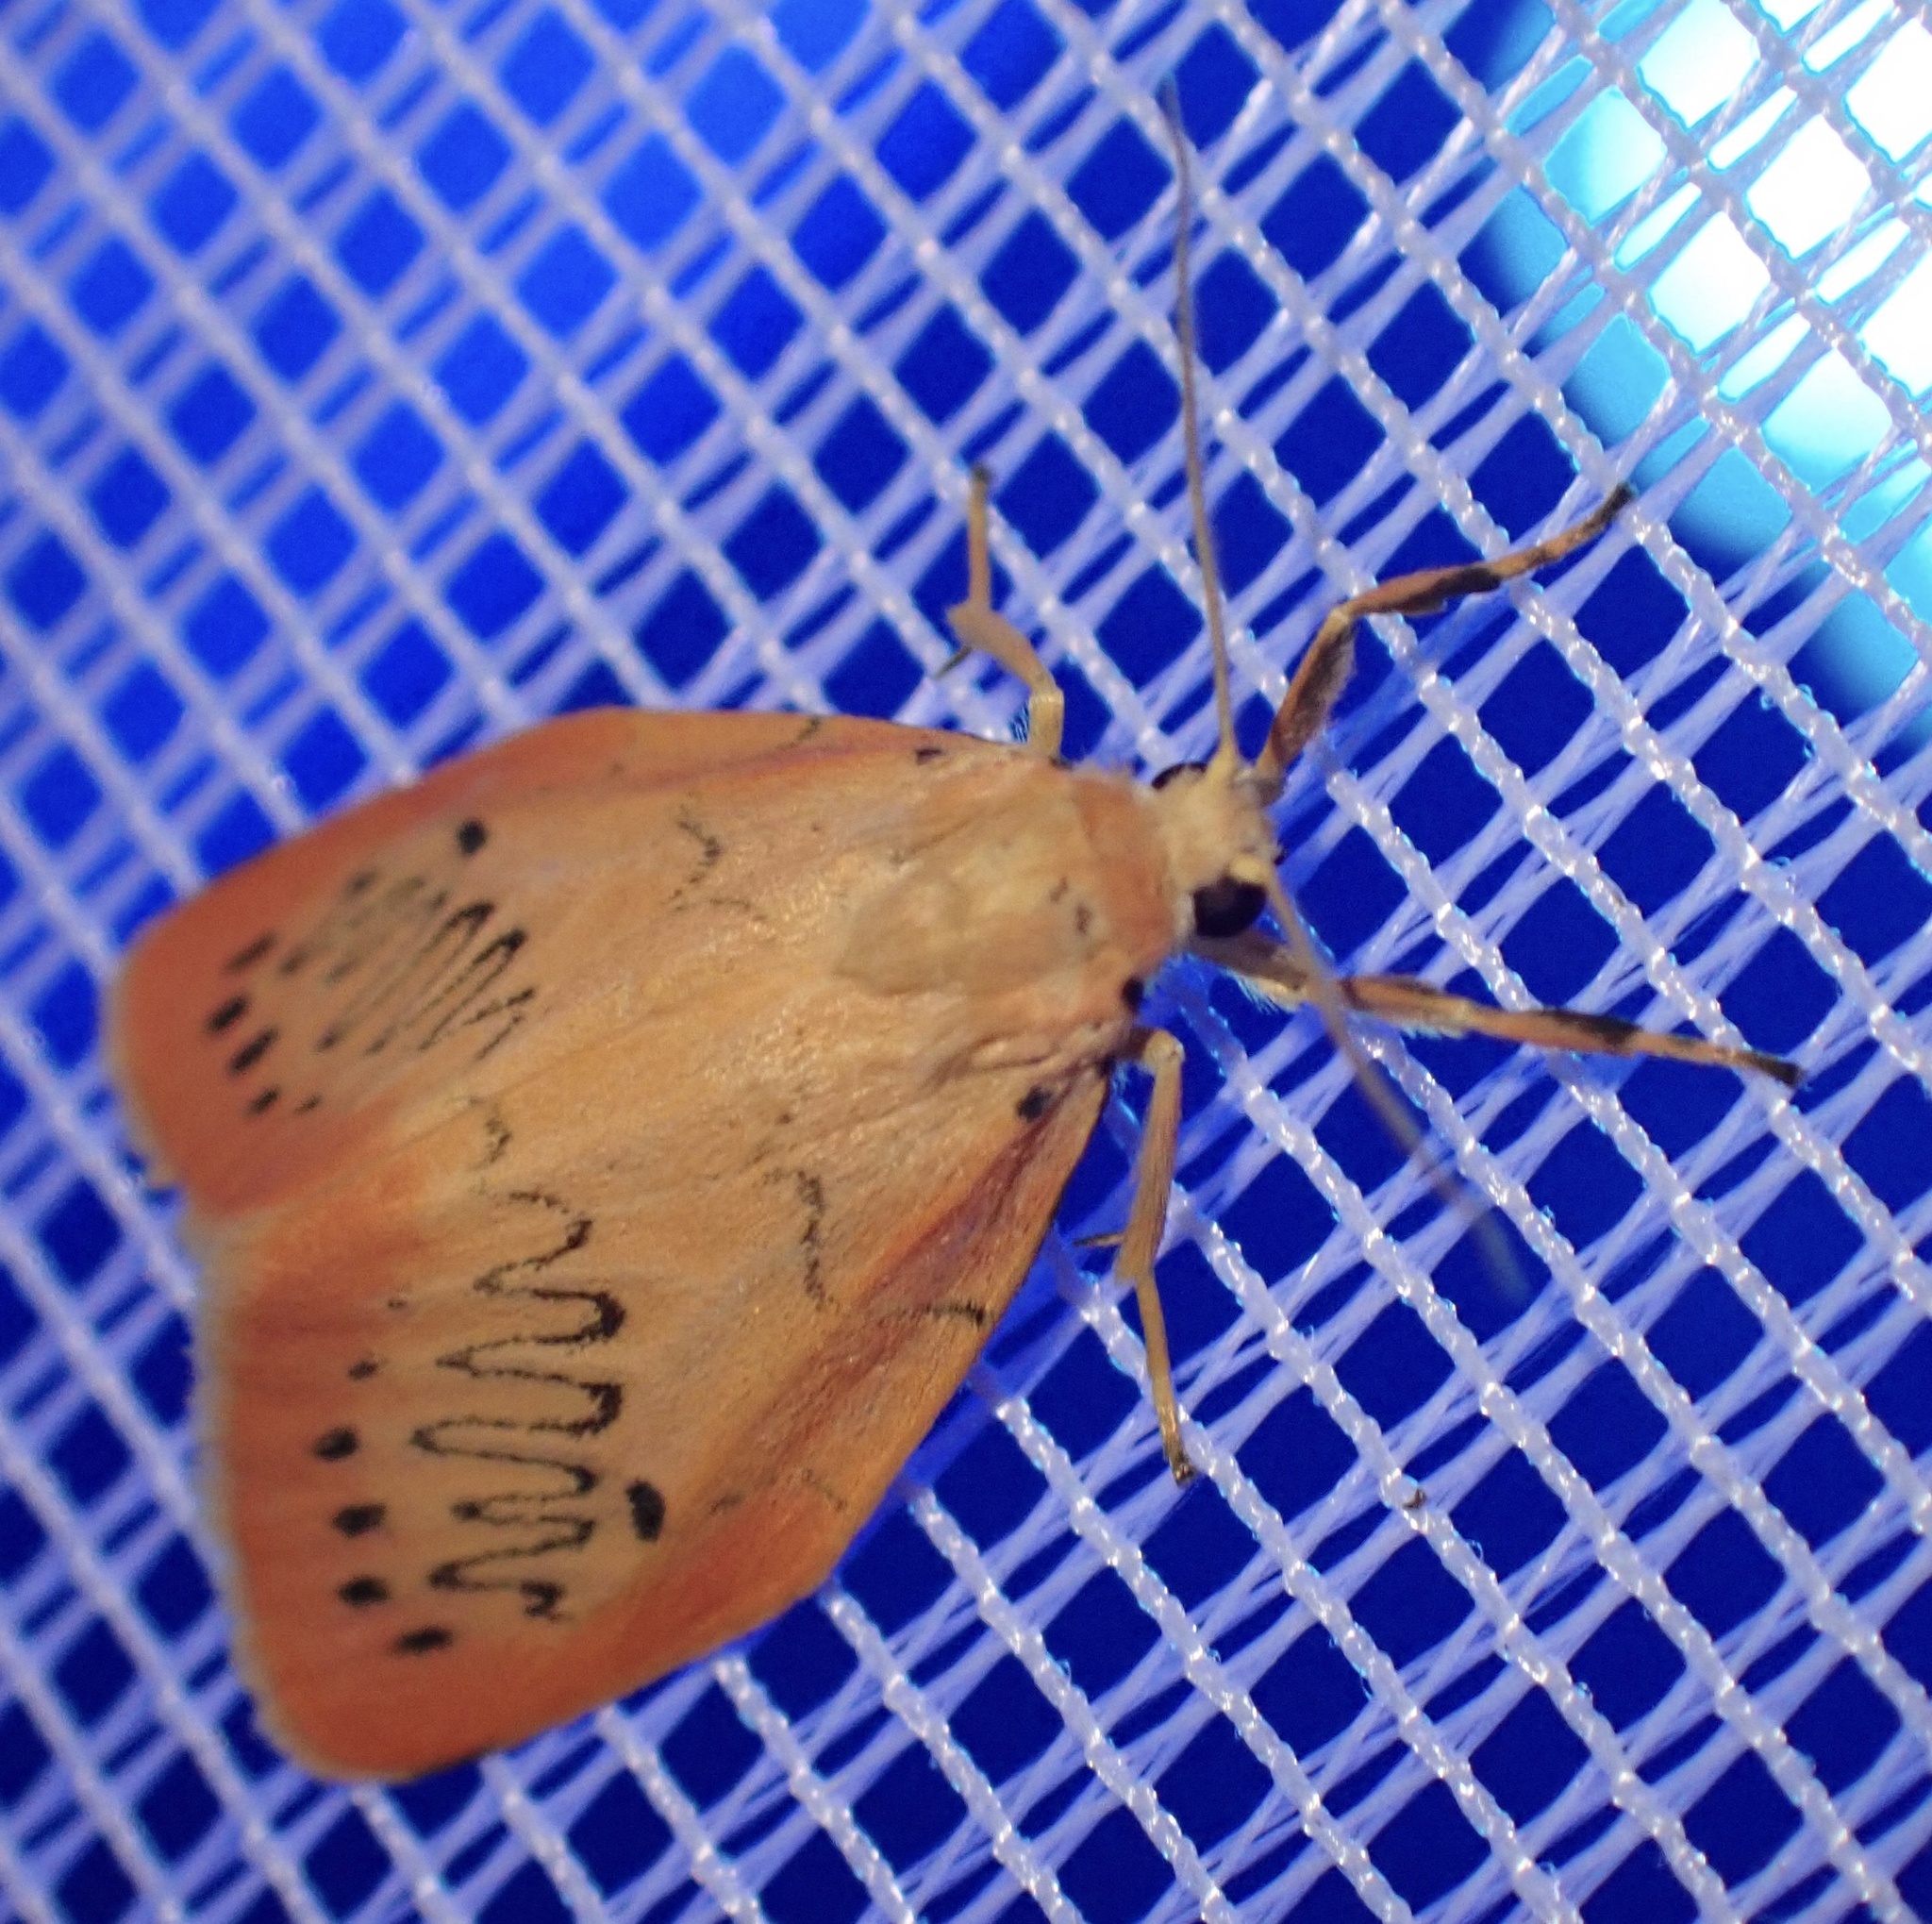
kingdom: Animalia
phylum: Arthropoda
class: Insecta
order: Lepidoptera
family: Erebidae
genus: Miltochrista
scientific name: Miltochrista miniata
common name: Rosy footman
